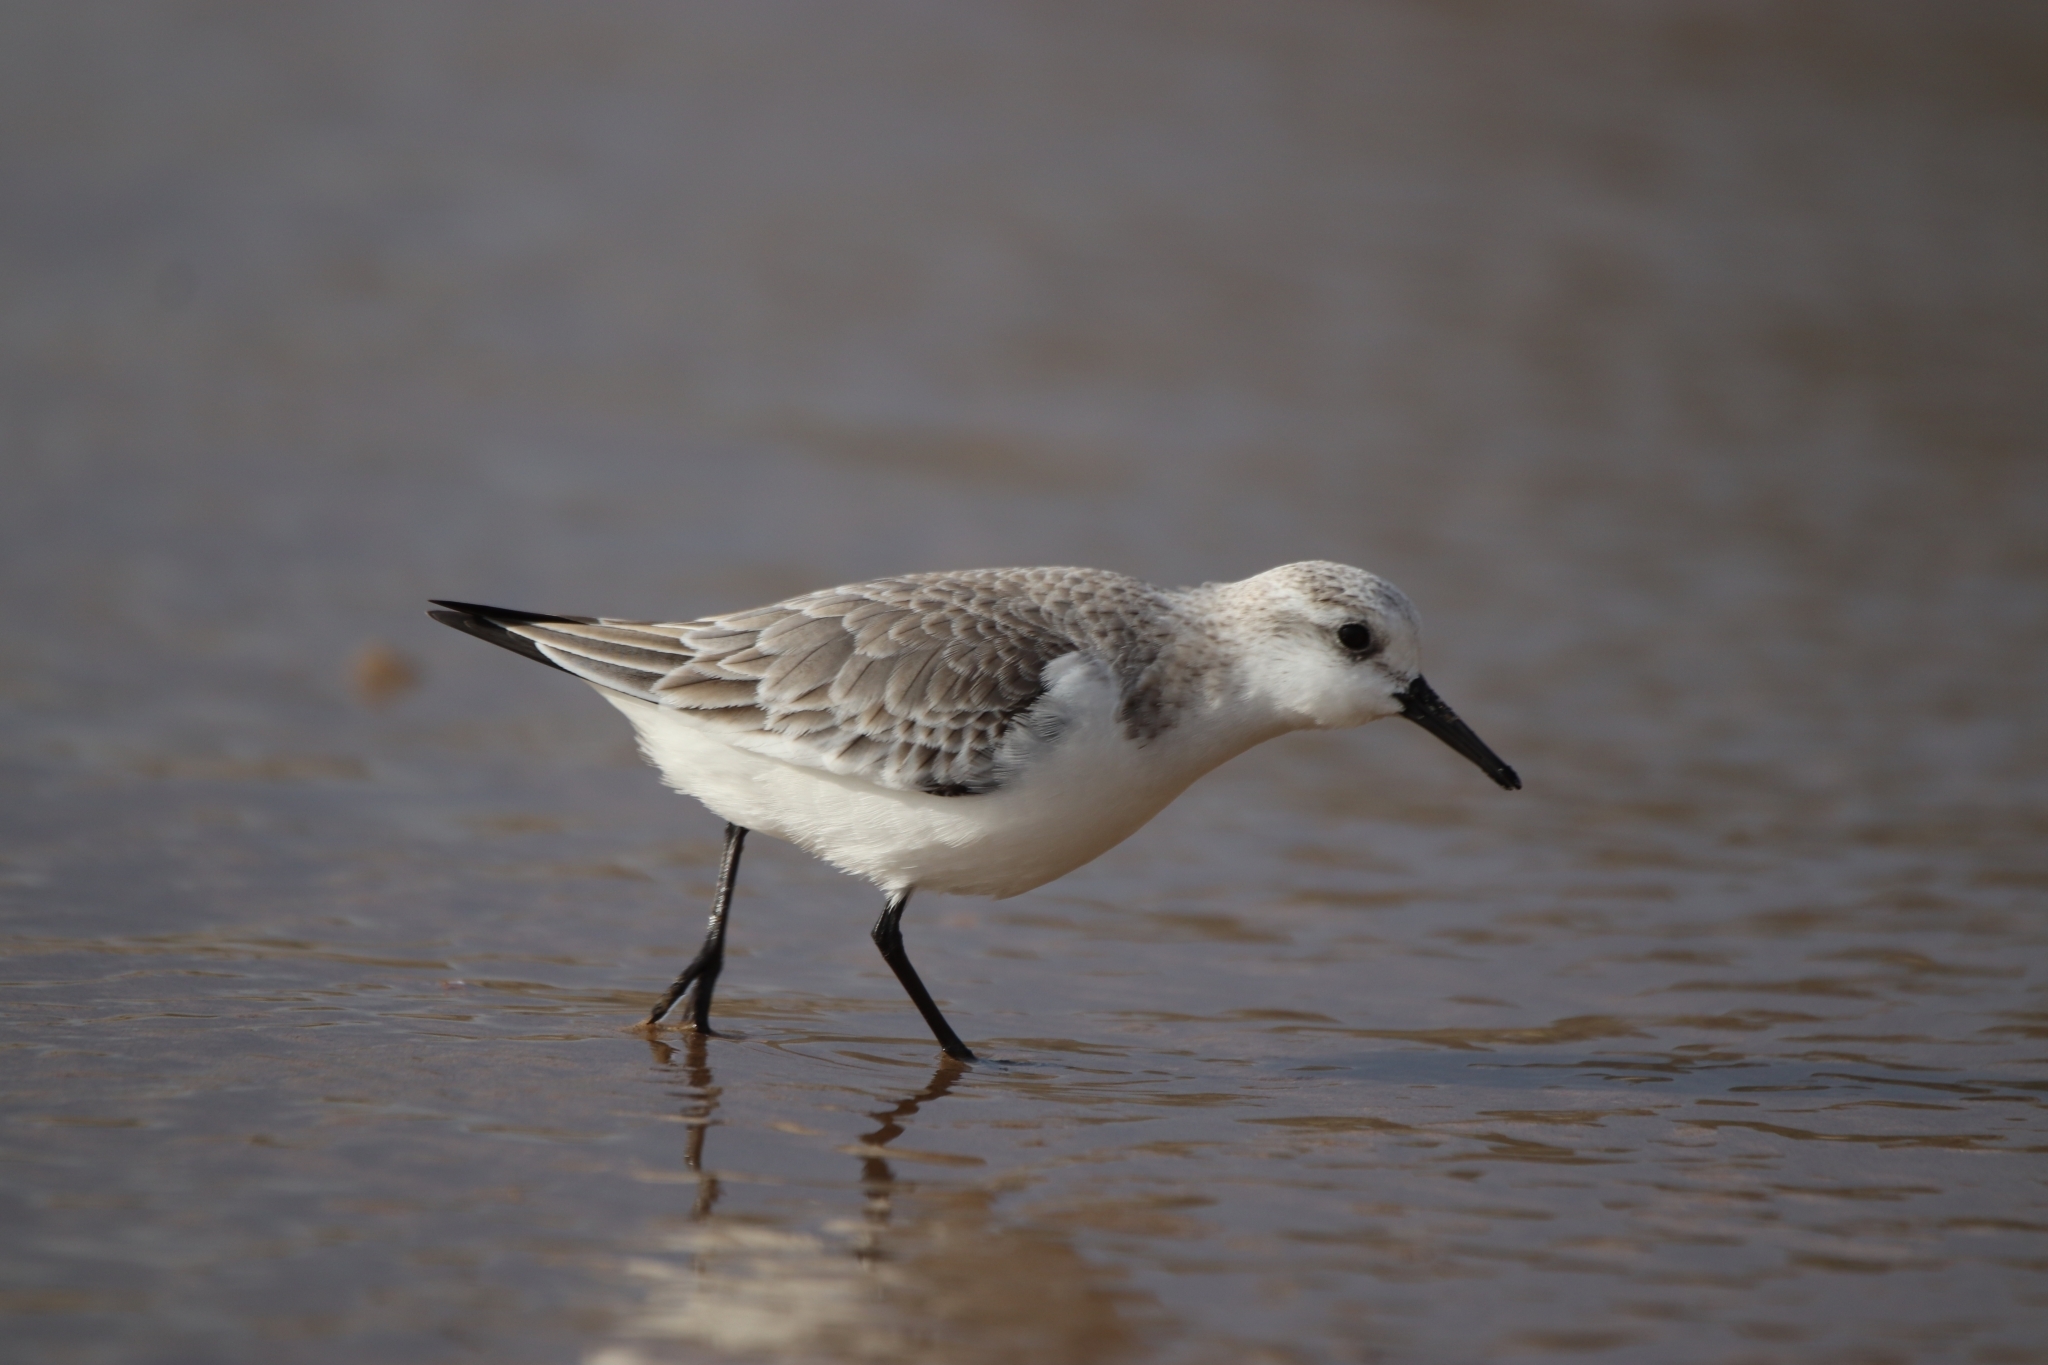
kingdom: Animalia
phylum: Chordata
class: Aves
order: Charadriiformes
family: Scolopacidae
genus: Calidris
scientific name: Calidris alba
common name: Sanderling
